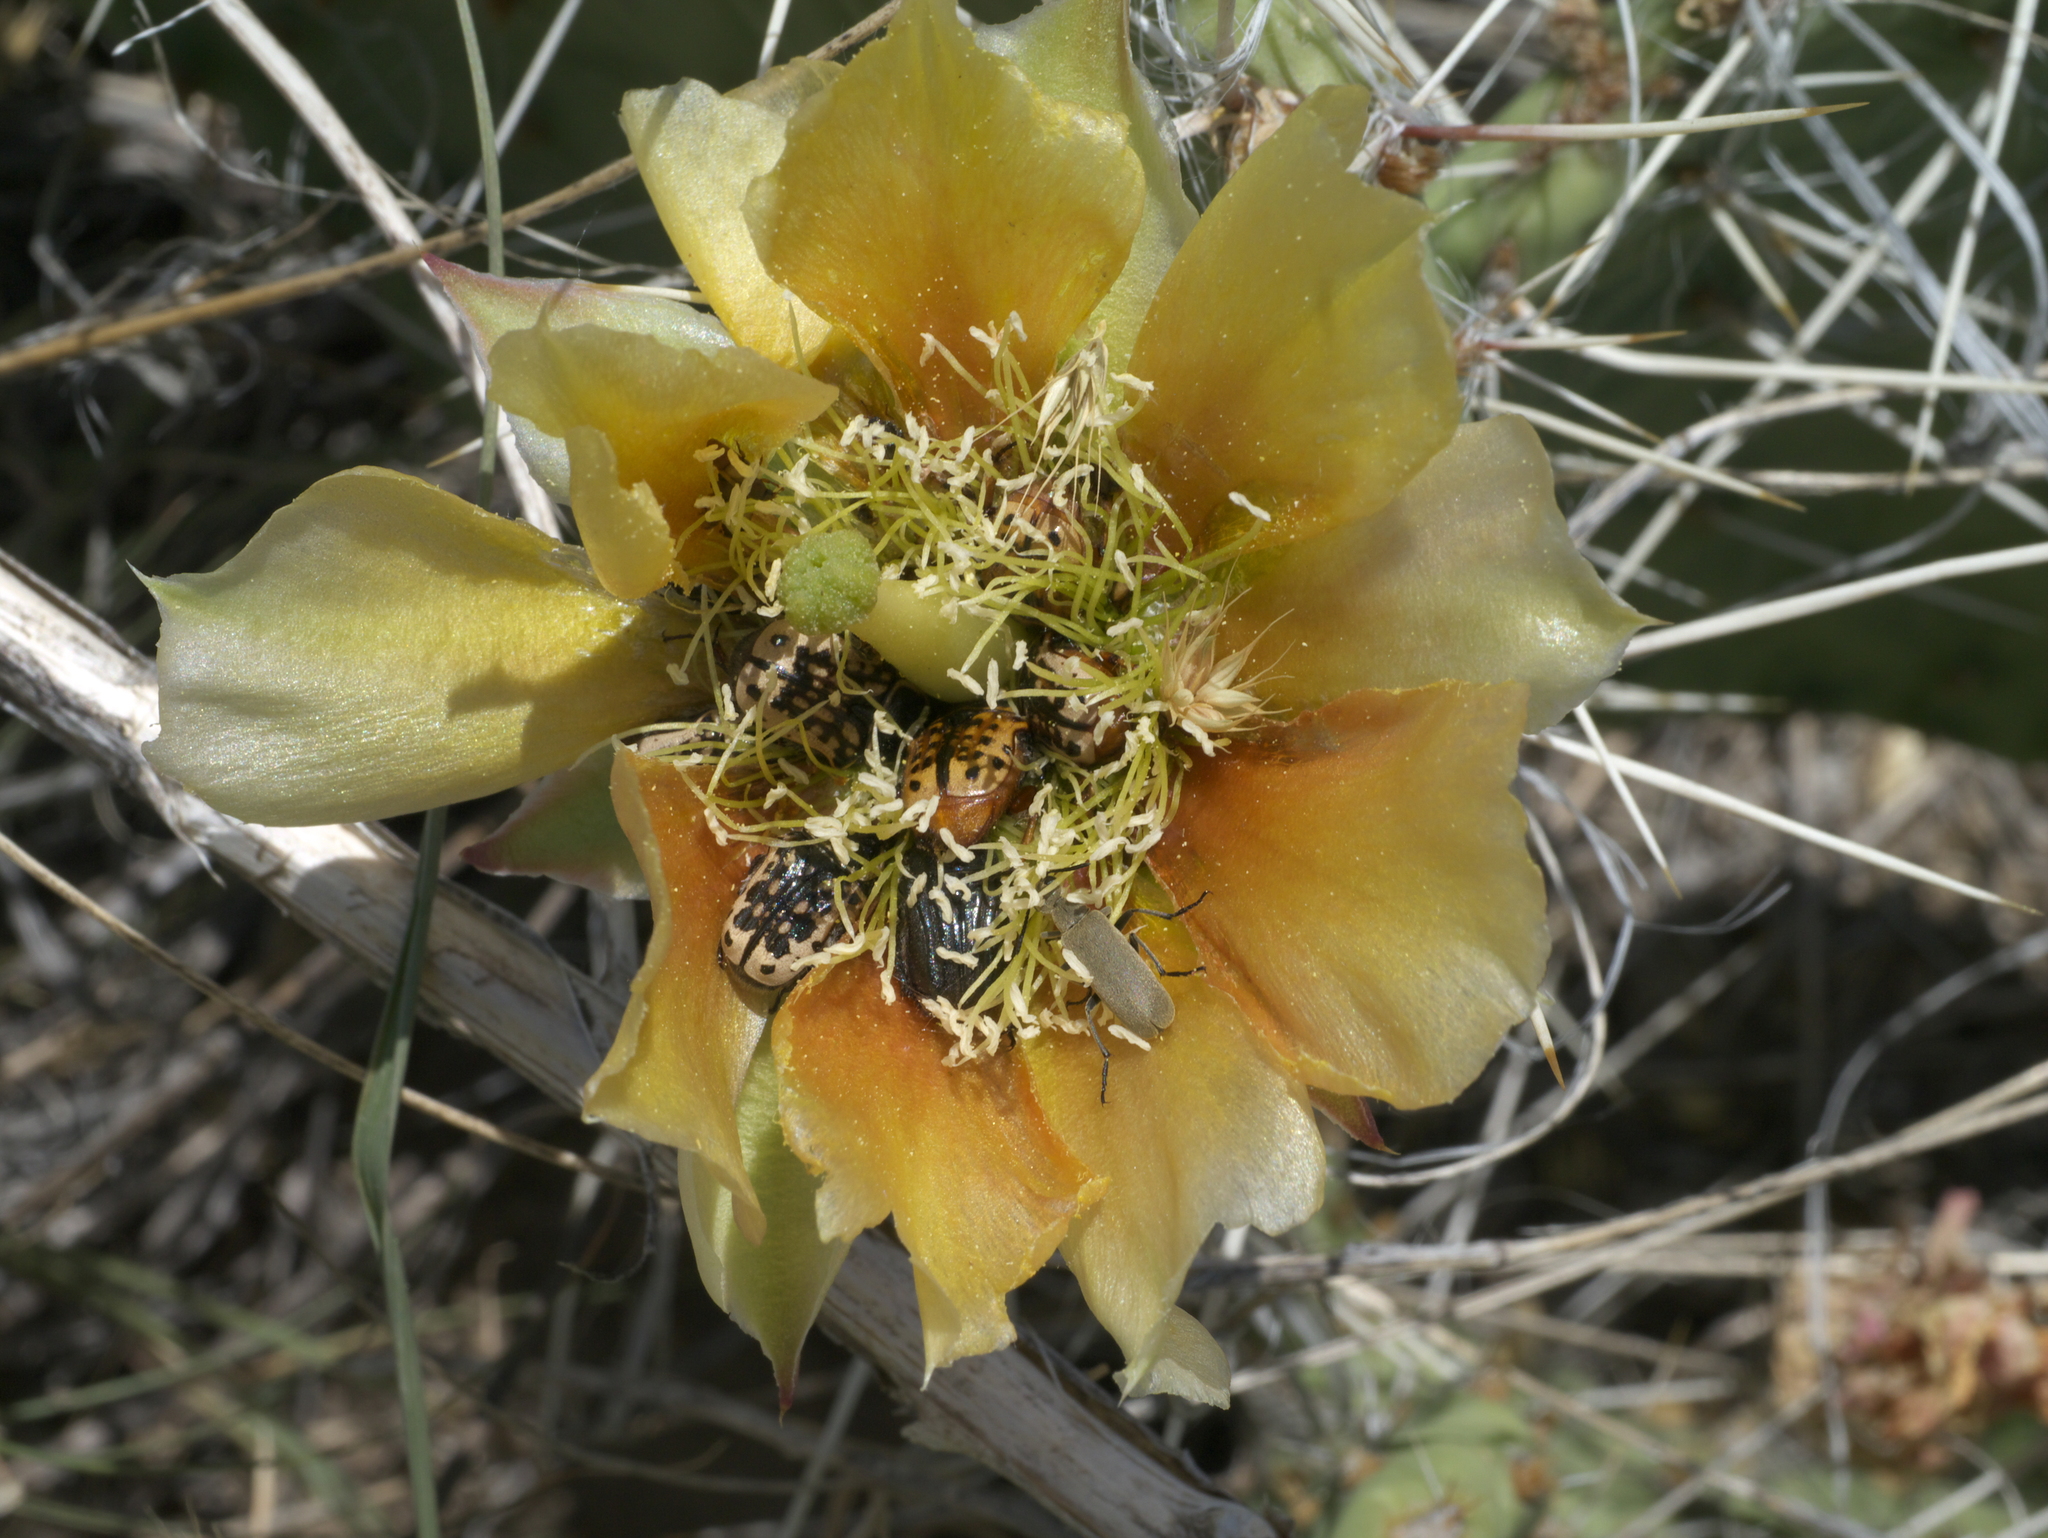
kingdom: Plantae
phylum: Tracheophyta
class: Magnoliopsida
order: Caryophyllales
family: Cactaceae
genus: Opuntia
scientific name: Opuntia macrorhiza
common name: Grassland pricklypear
